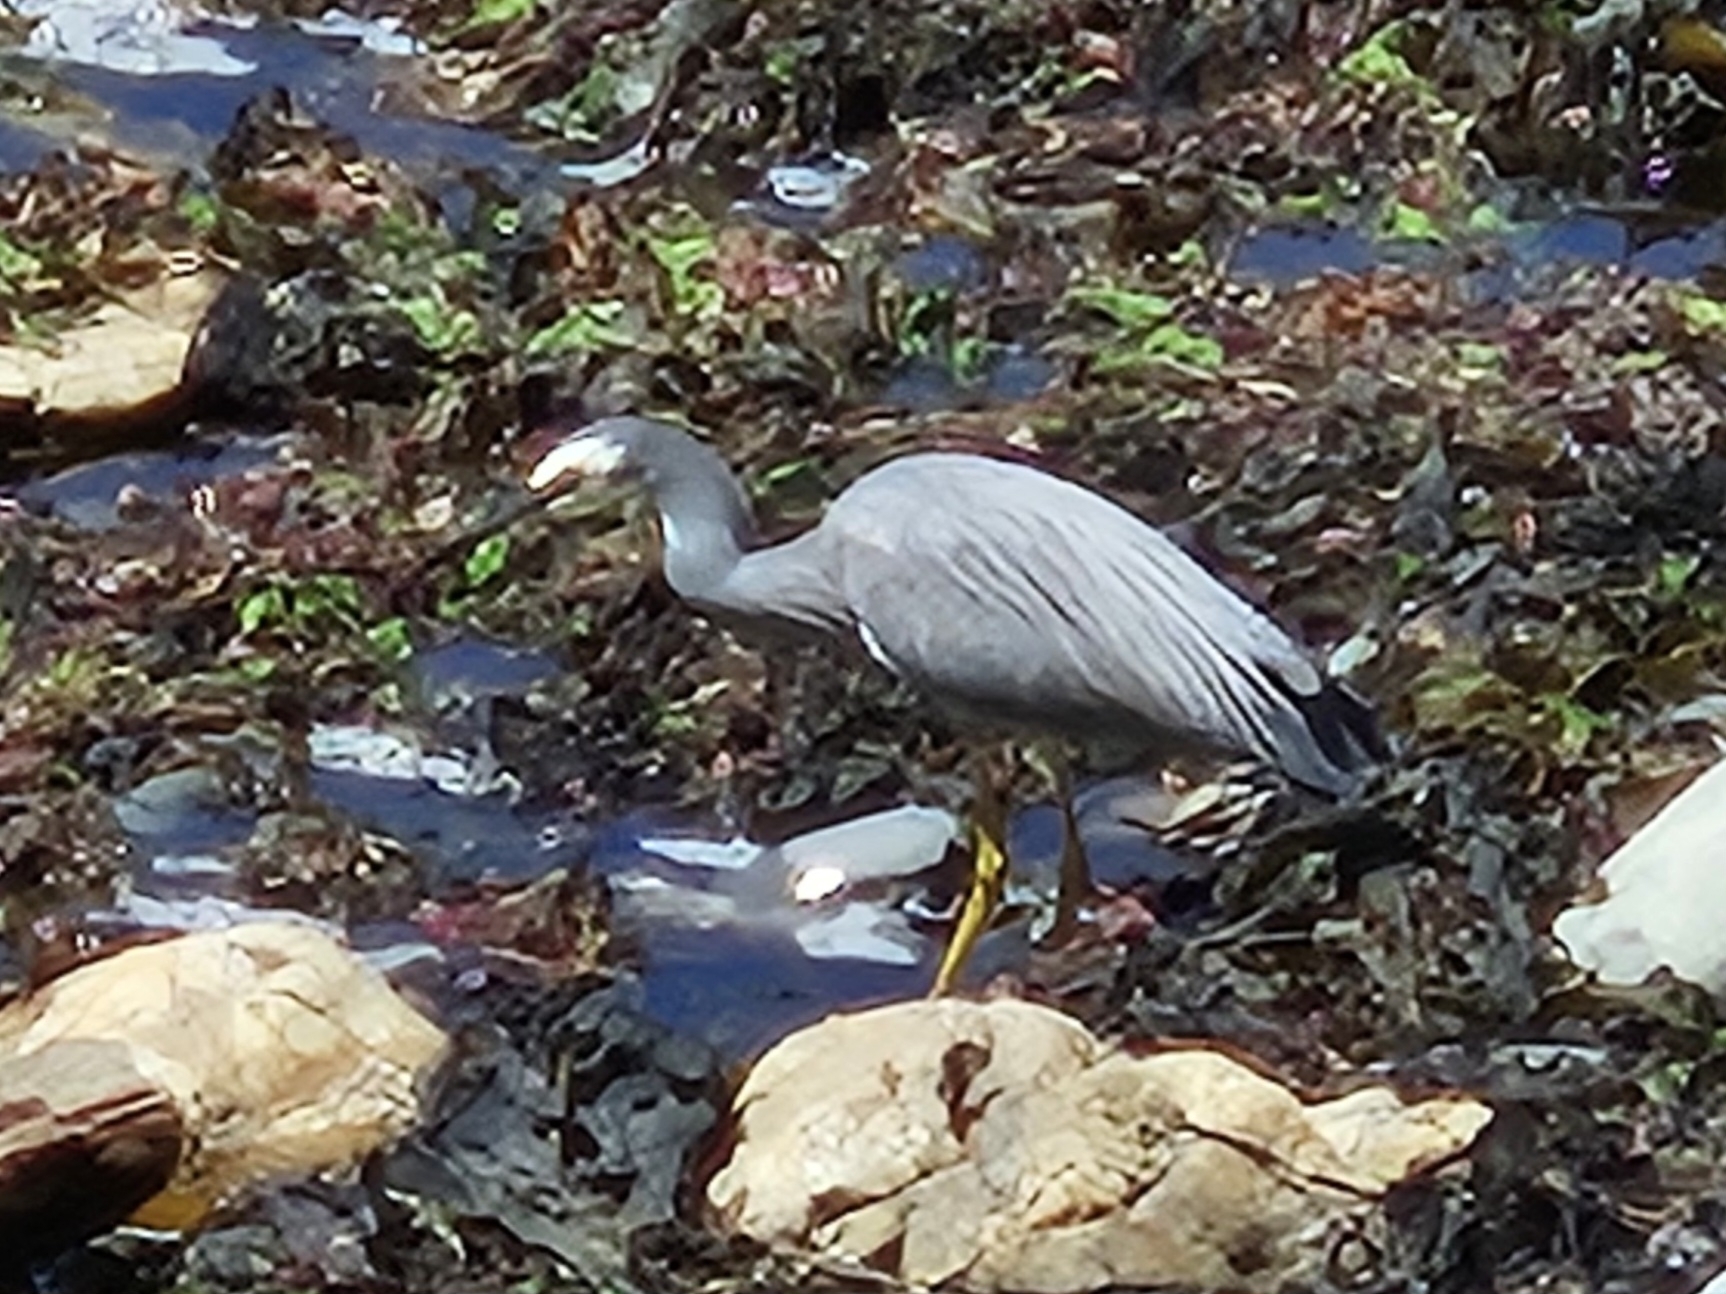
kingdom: Animalia
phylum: Chordata
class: Aves
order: Pelecaniformes
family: Ardeidae
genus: Egretta
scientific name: Egretta novaehollandiae
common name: White-faced heron
